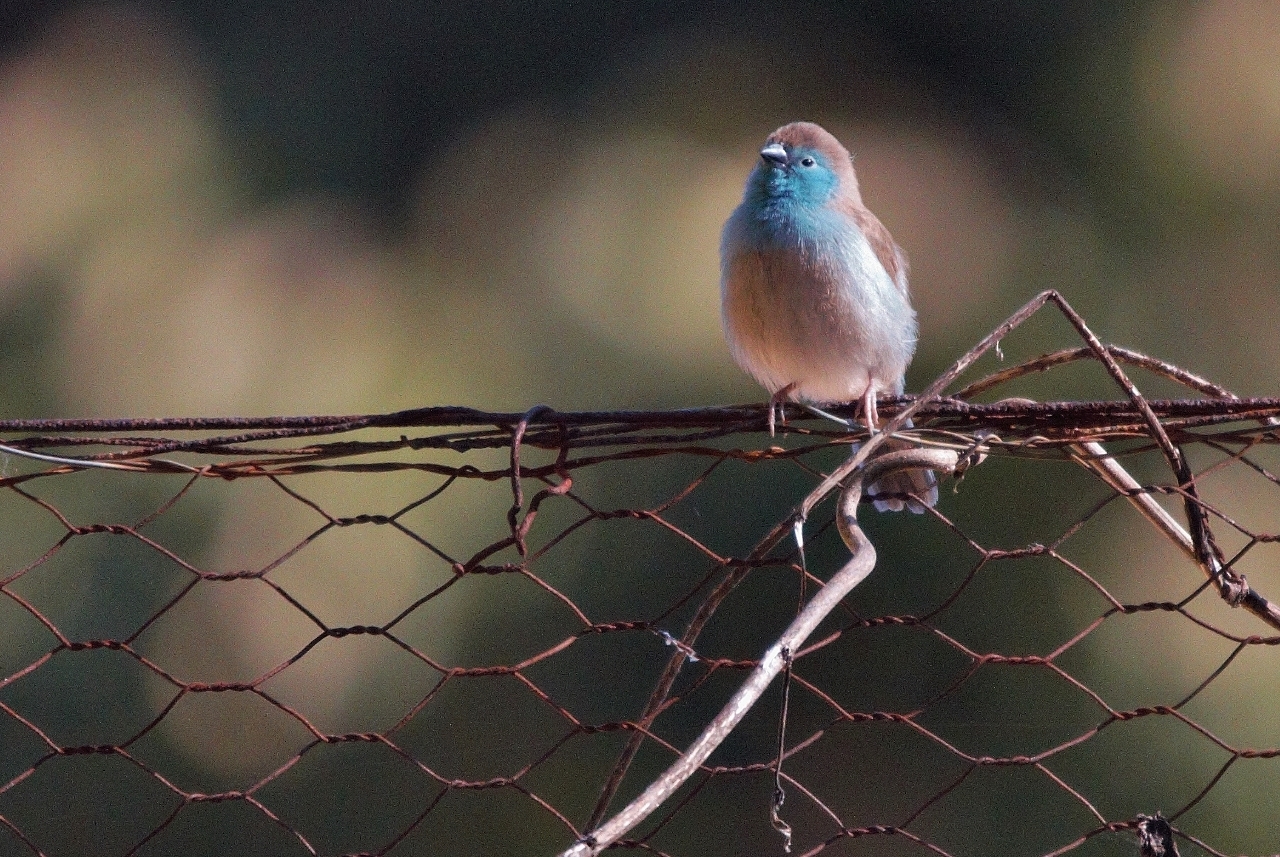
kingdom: Animalia
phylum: Chordata
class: Aves
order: Passeriformes
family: Estrildidae
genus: Uraeginthus
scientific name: Uraeginthus angolensis
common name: Blue waxbill
